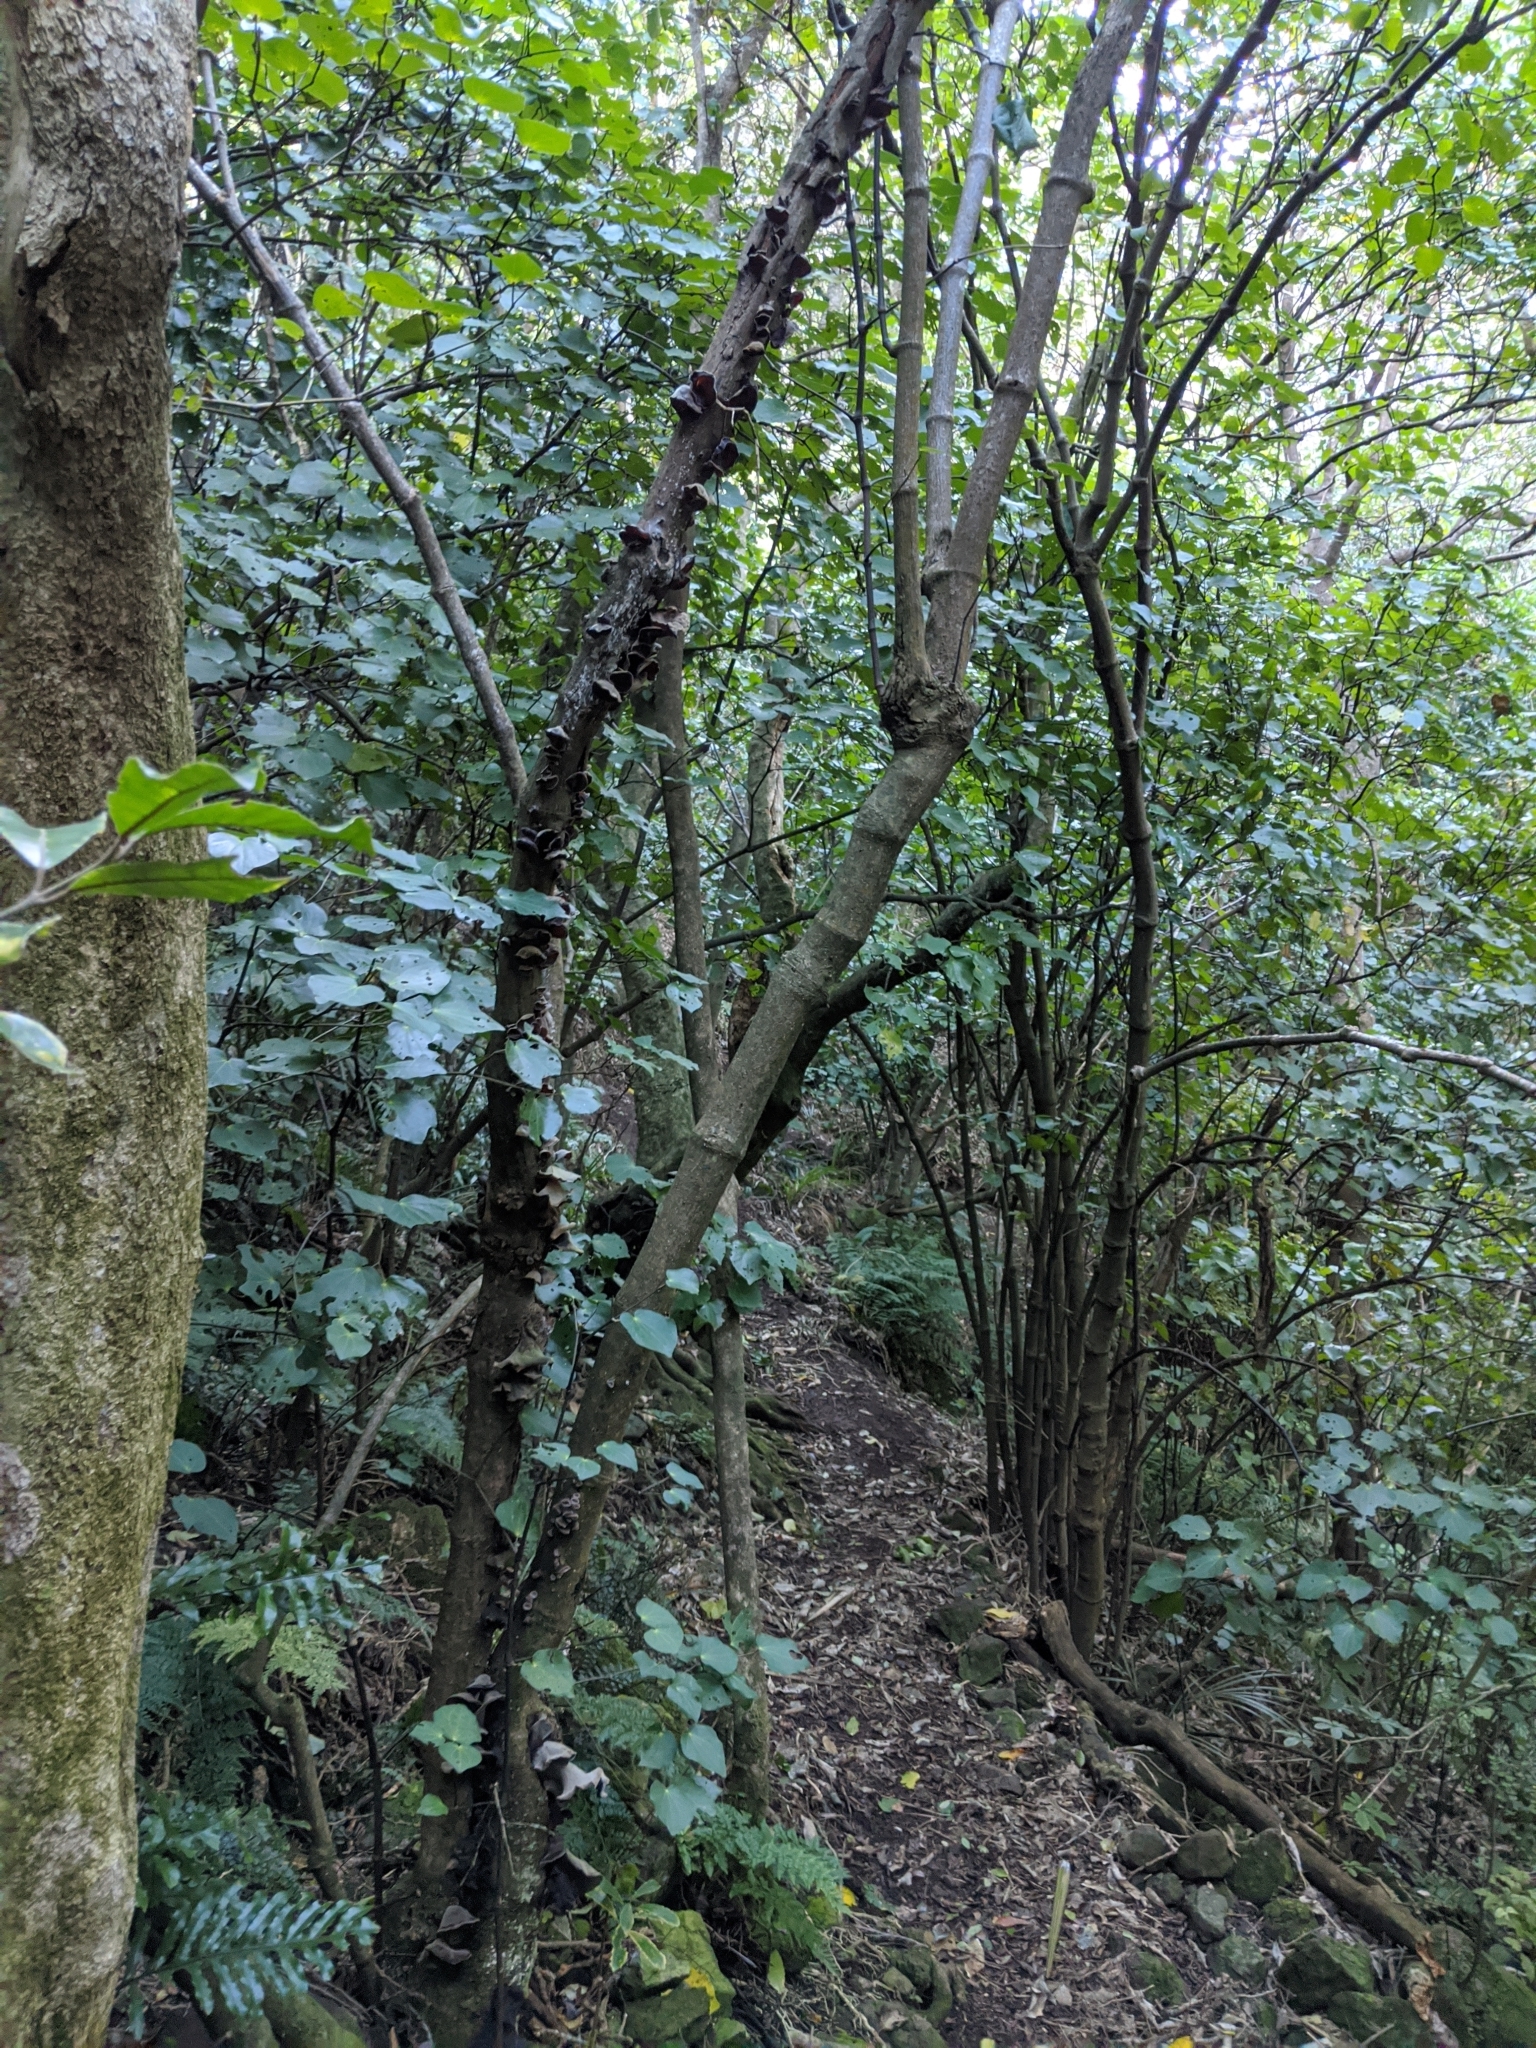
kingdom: Fungi
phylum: Basidiomycota
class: Agaricomycetes
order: Auriculariales
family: Auriculariaceae
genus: Auricularia
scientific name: Auricularia cornea
